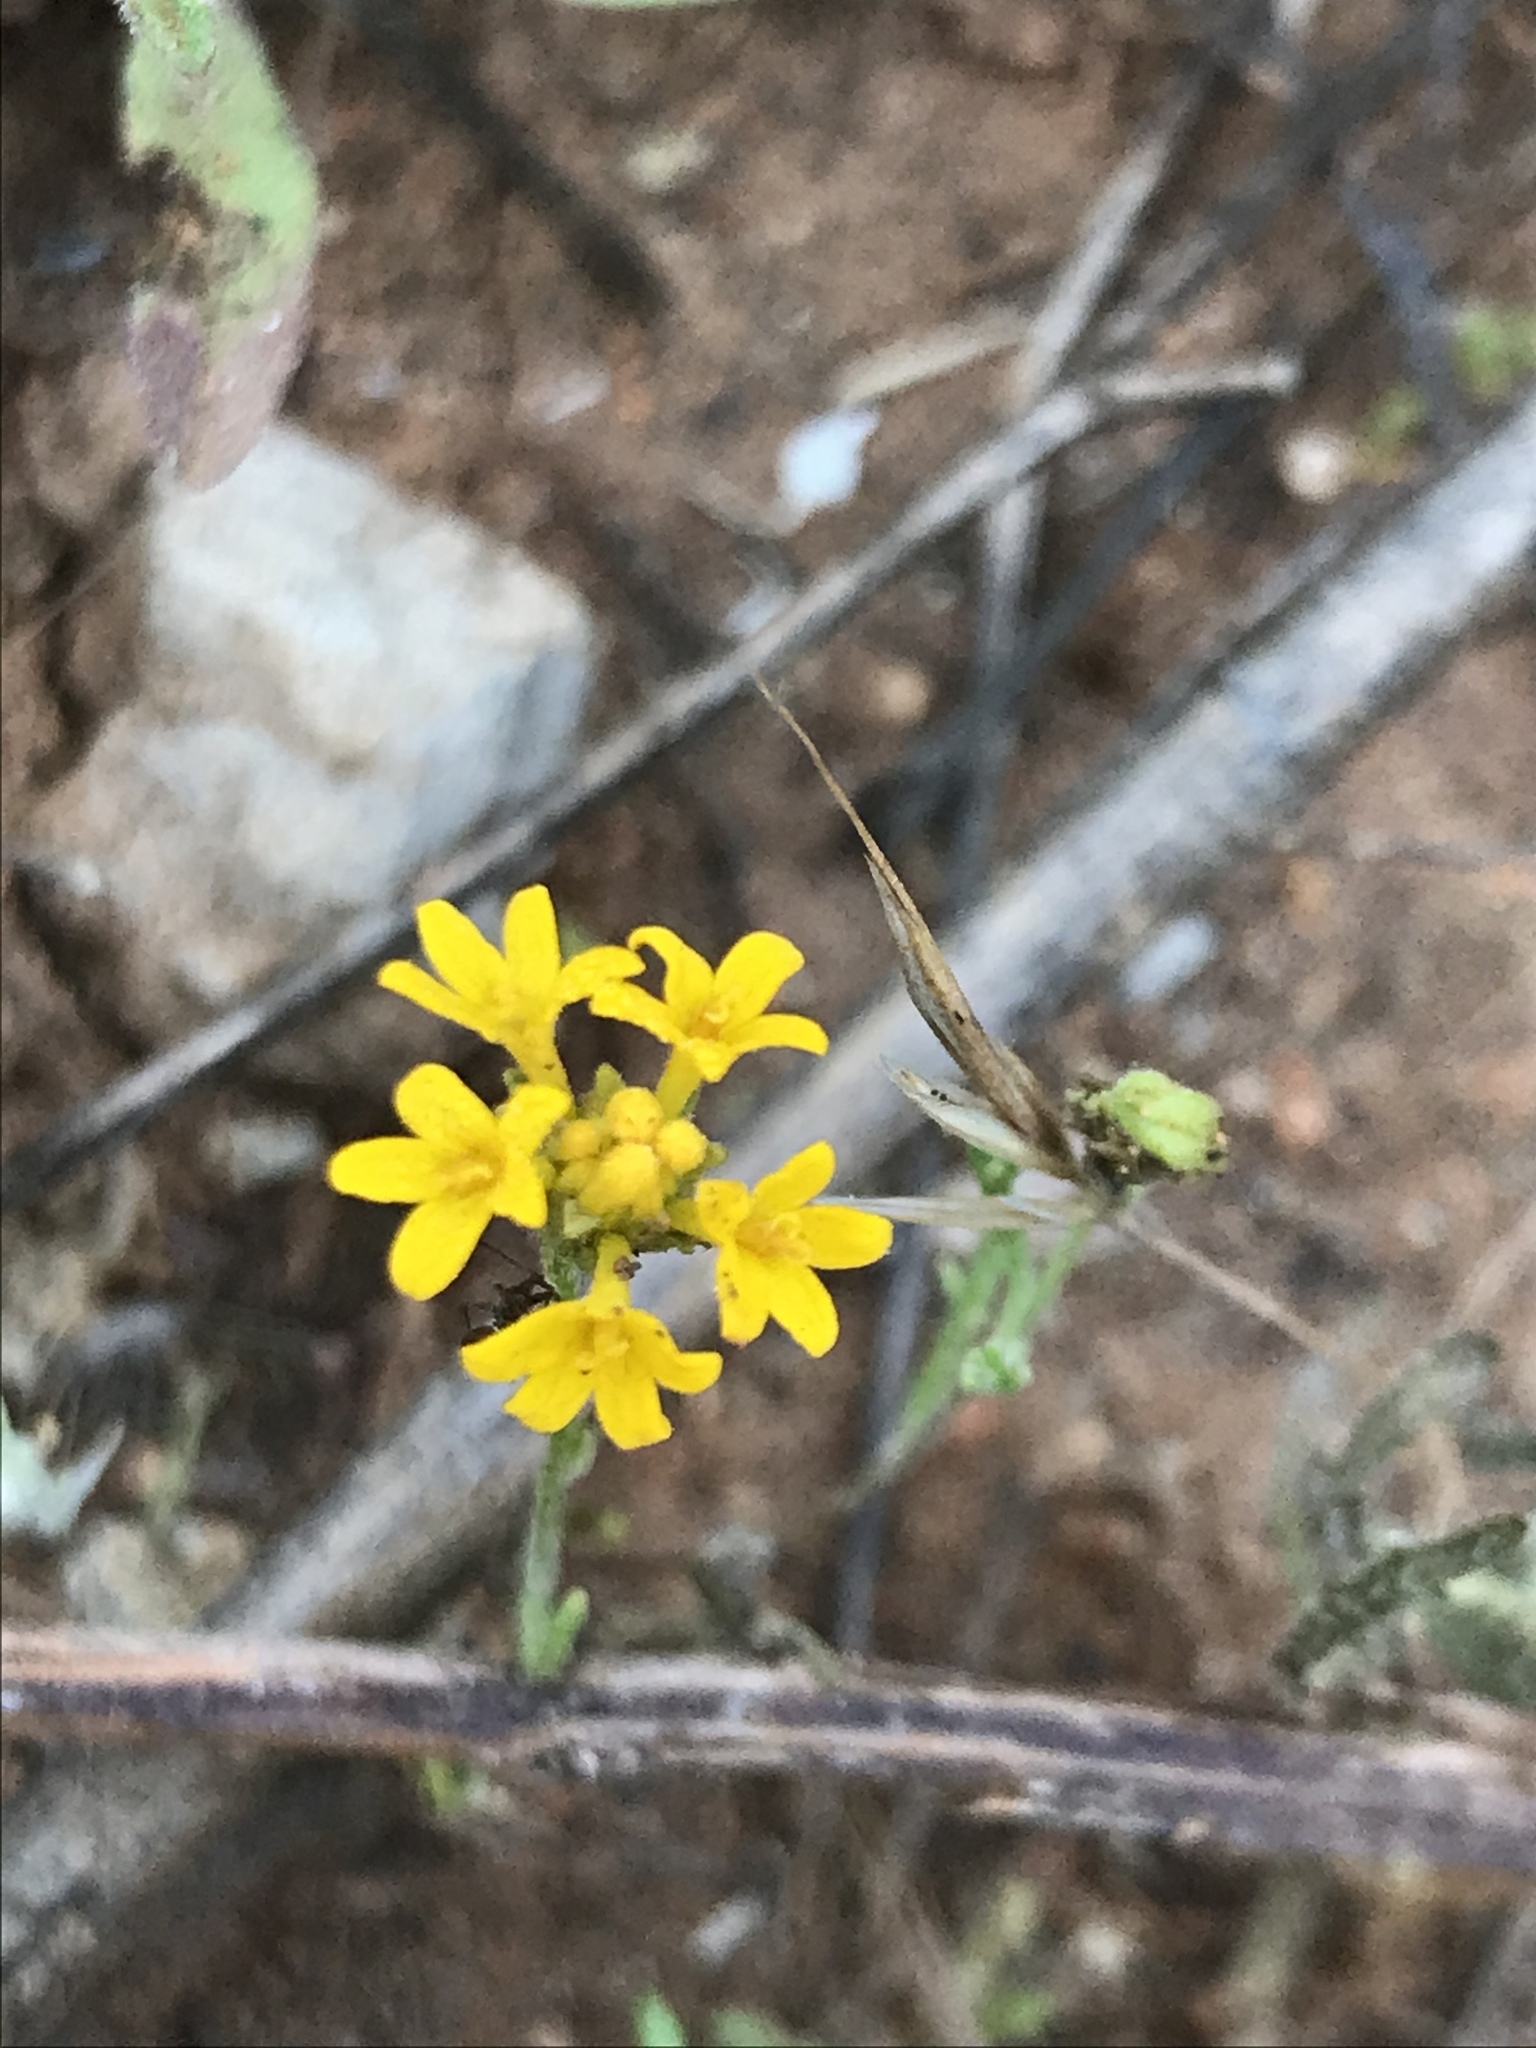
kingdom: Plantae
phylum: Tracheophyta
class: Magnoliopsida
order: Asterales
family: Asteraceae
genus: Eriophyllum
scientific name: Eriophyllum confertiflorum
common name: Golden-yarrow
